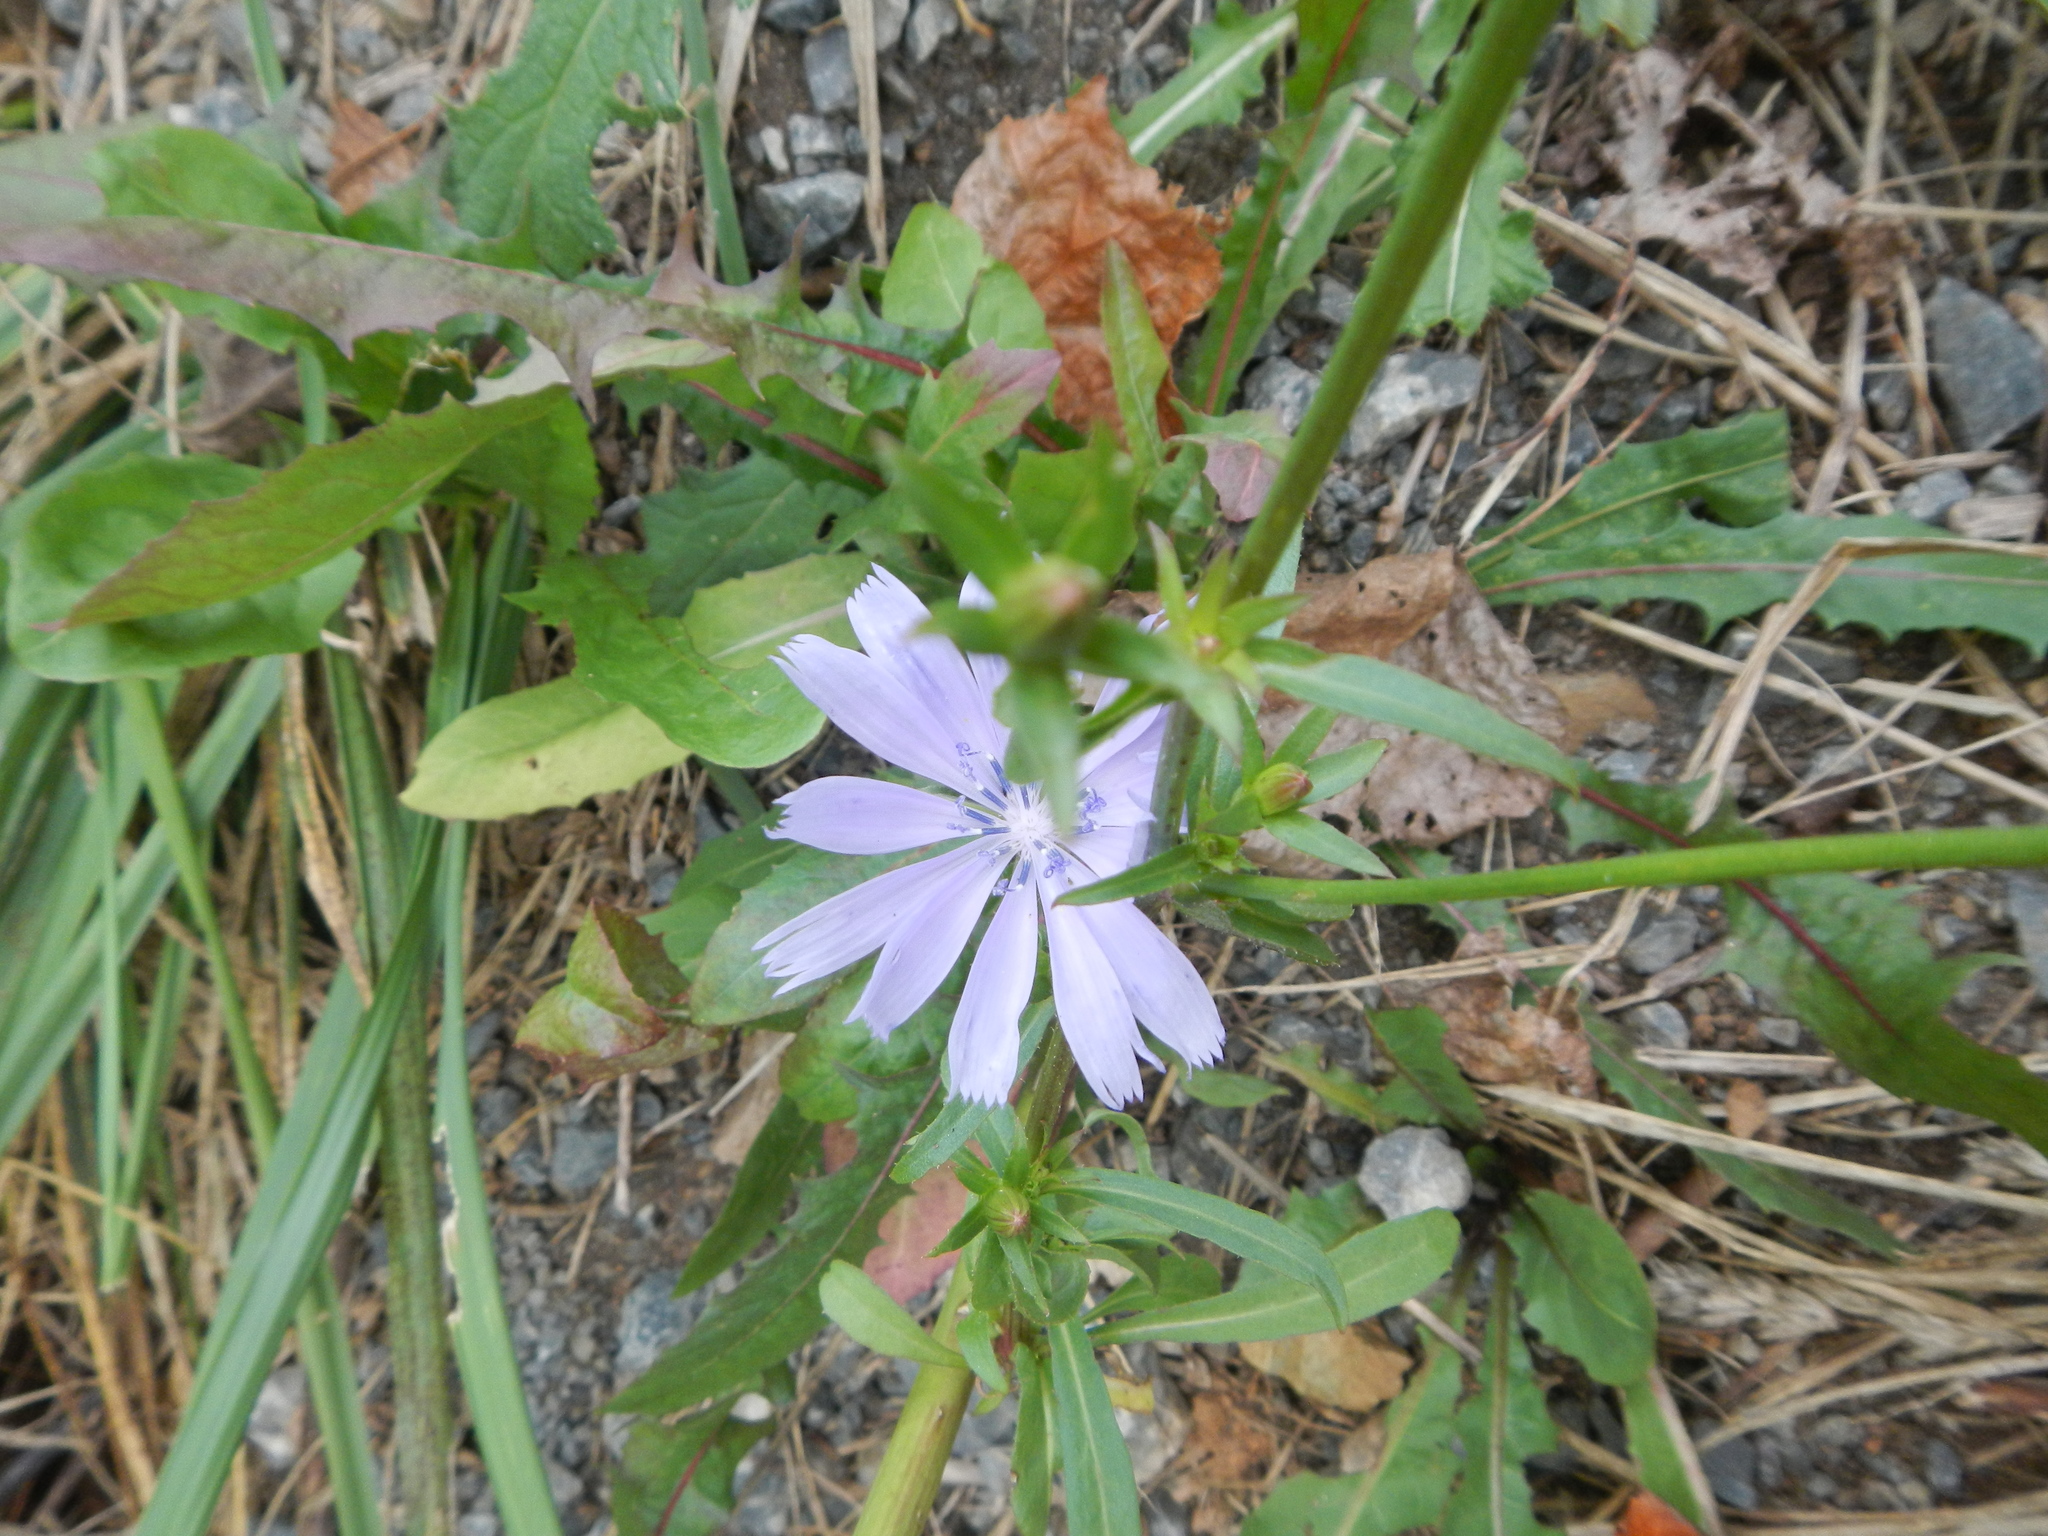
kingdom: Plantae
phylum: Tracheophyta
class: Magnoliopsida
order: Asterales
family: Asteraceae
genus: Cichorium
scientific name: Cichorium intybus
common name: Chicory
